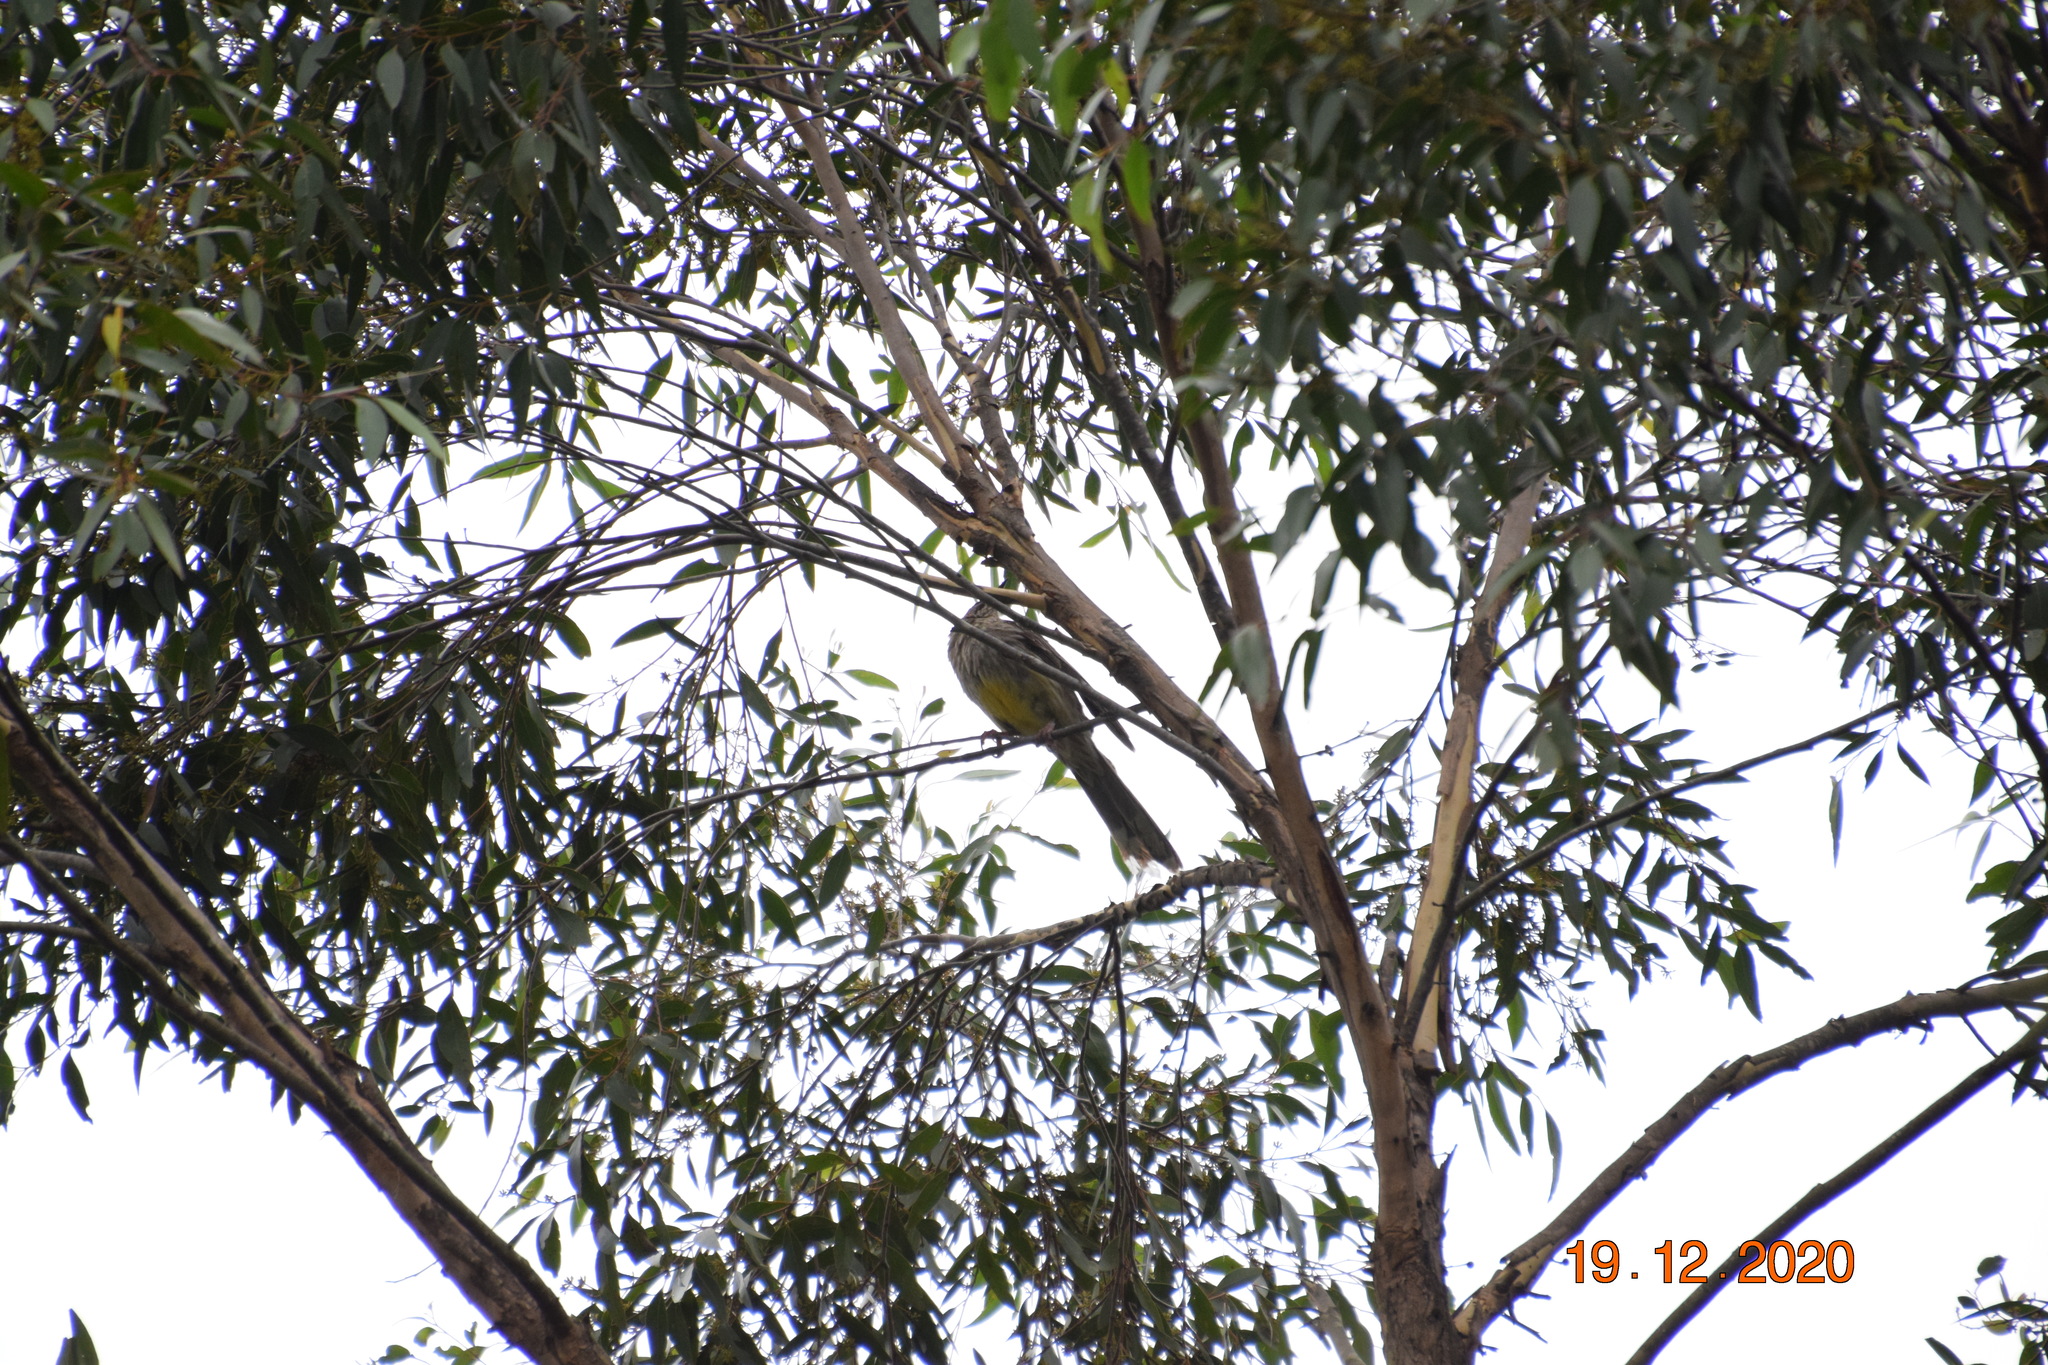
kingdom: Animalia
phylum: Chordata
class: Aves
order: Passeriformes
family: Meliphagidae
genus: Anthochaera
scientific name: Anthochaera carunculata
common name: Red wattlebird
